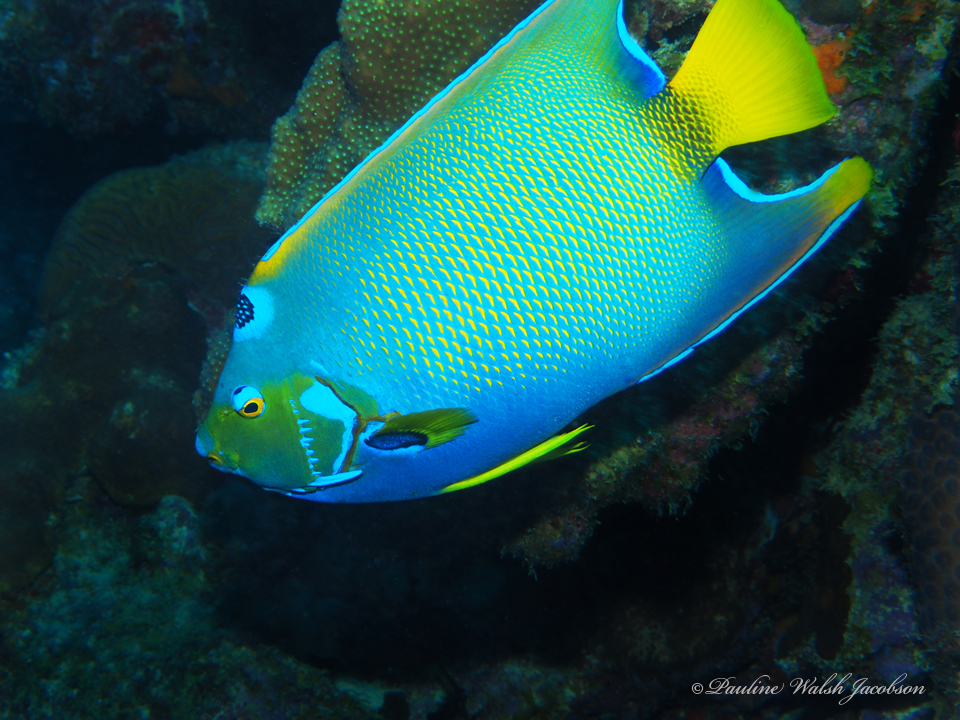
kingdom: Animalia
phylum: Chordata
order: Perciformes
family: Pomacanthidae
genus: Holacanthus
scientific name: Holacanthus ciliaris
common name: Queen angelfish
